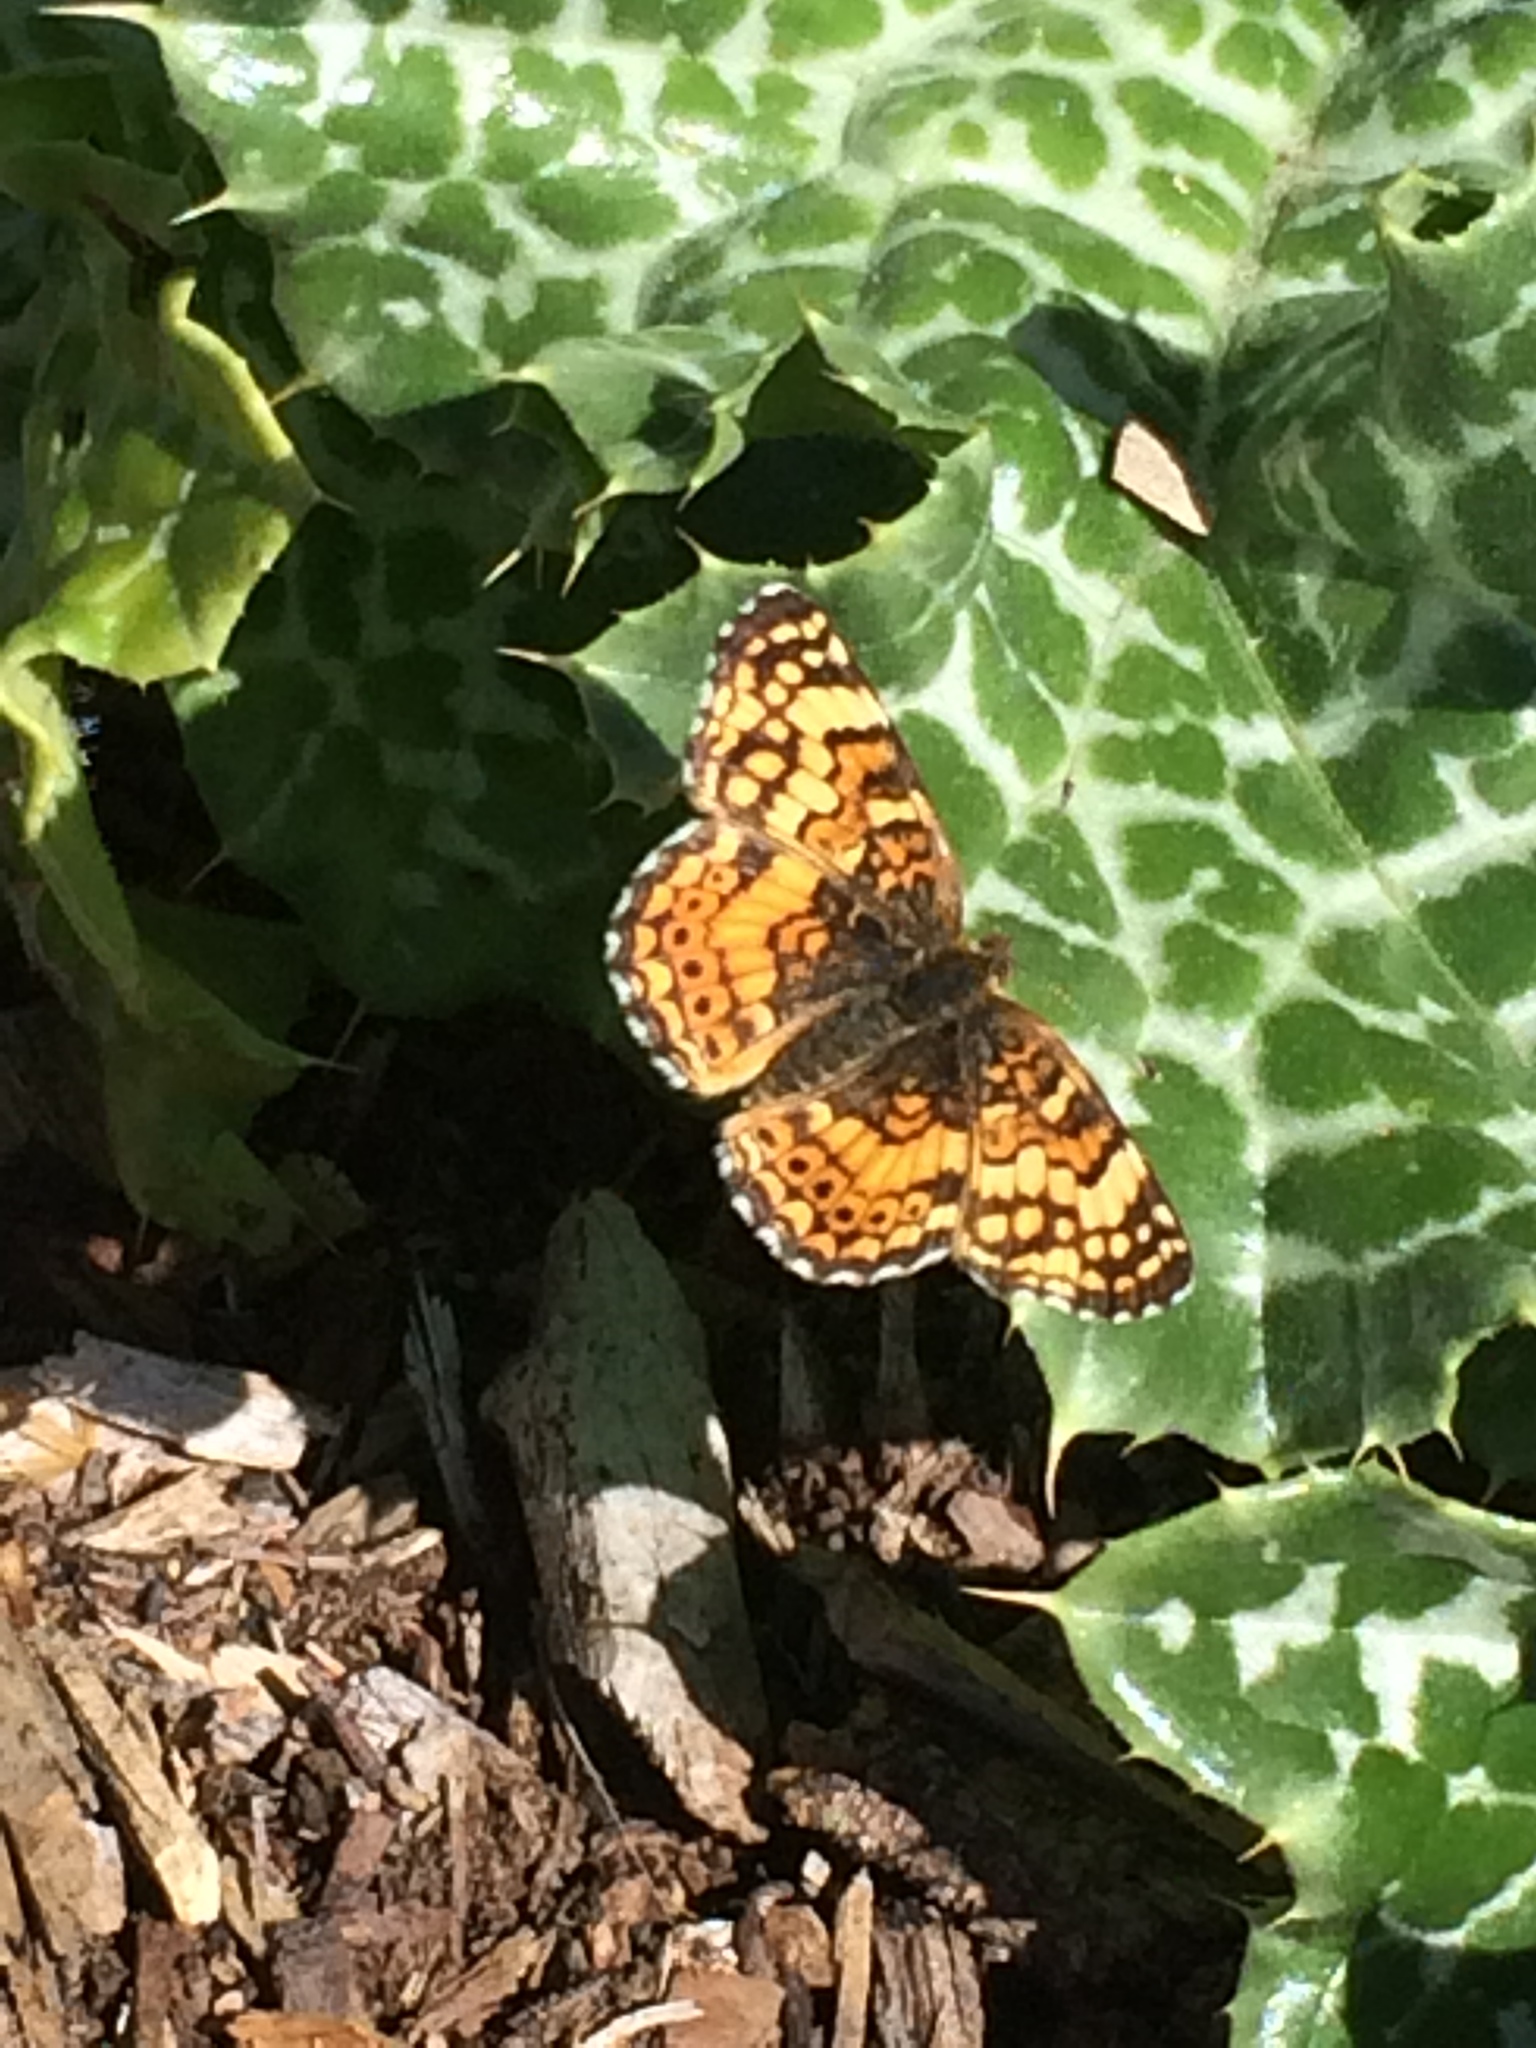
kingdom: Animalia
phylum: Arthropoda
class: Insecta
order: Lepidoptera
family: Nymphalidae
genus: Phyciodes
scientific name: Phyciodes tharos
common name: Pearl crescent
